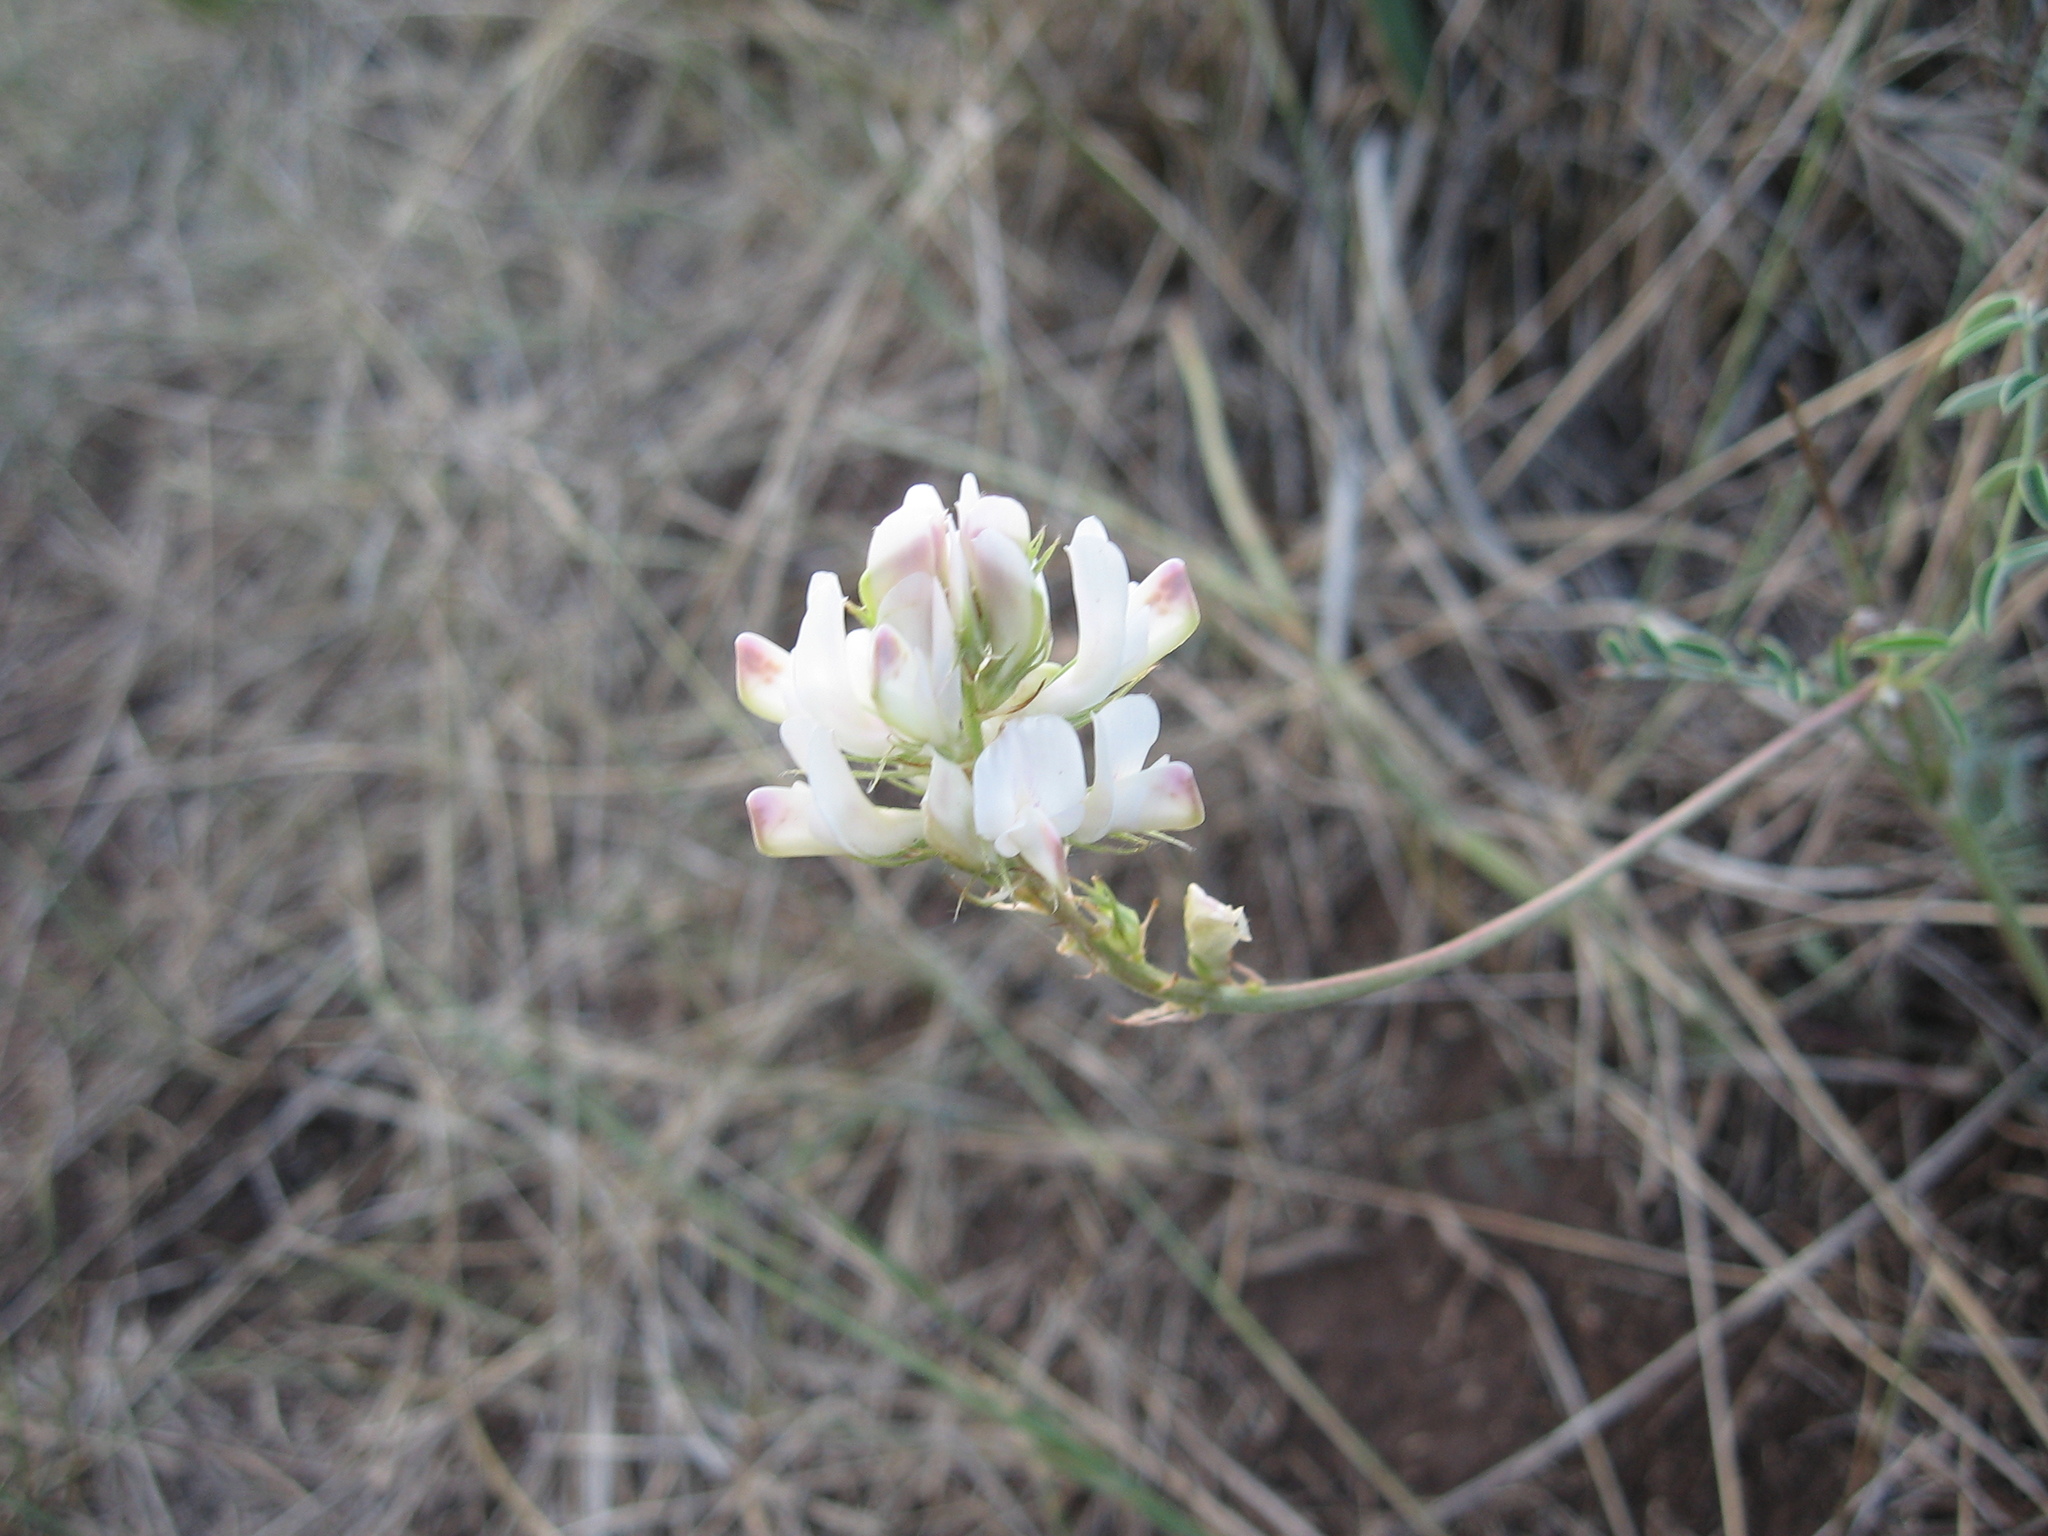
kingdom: Plantae
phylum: Tracheophyta
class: Magnoliopsida
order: Fabales
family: Fabaceae
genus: Hedysarum
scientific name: Hedysarum gmelinii
